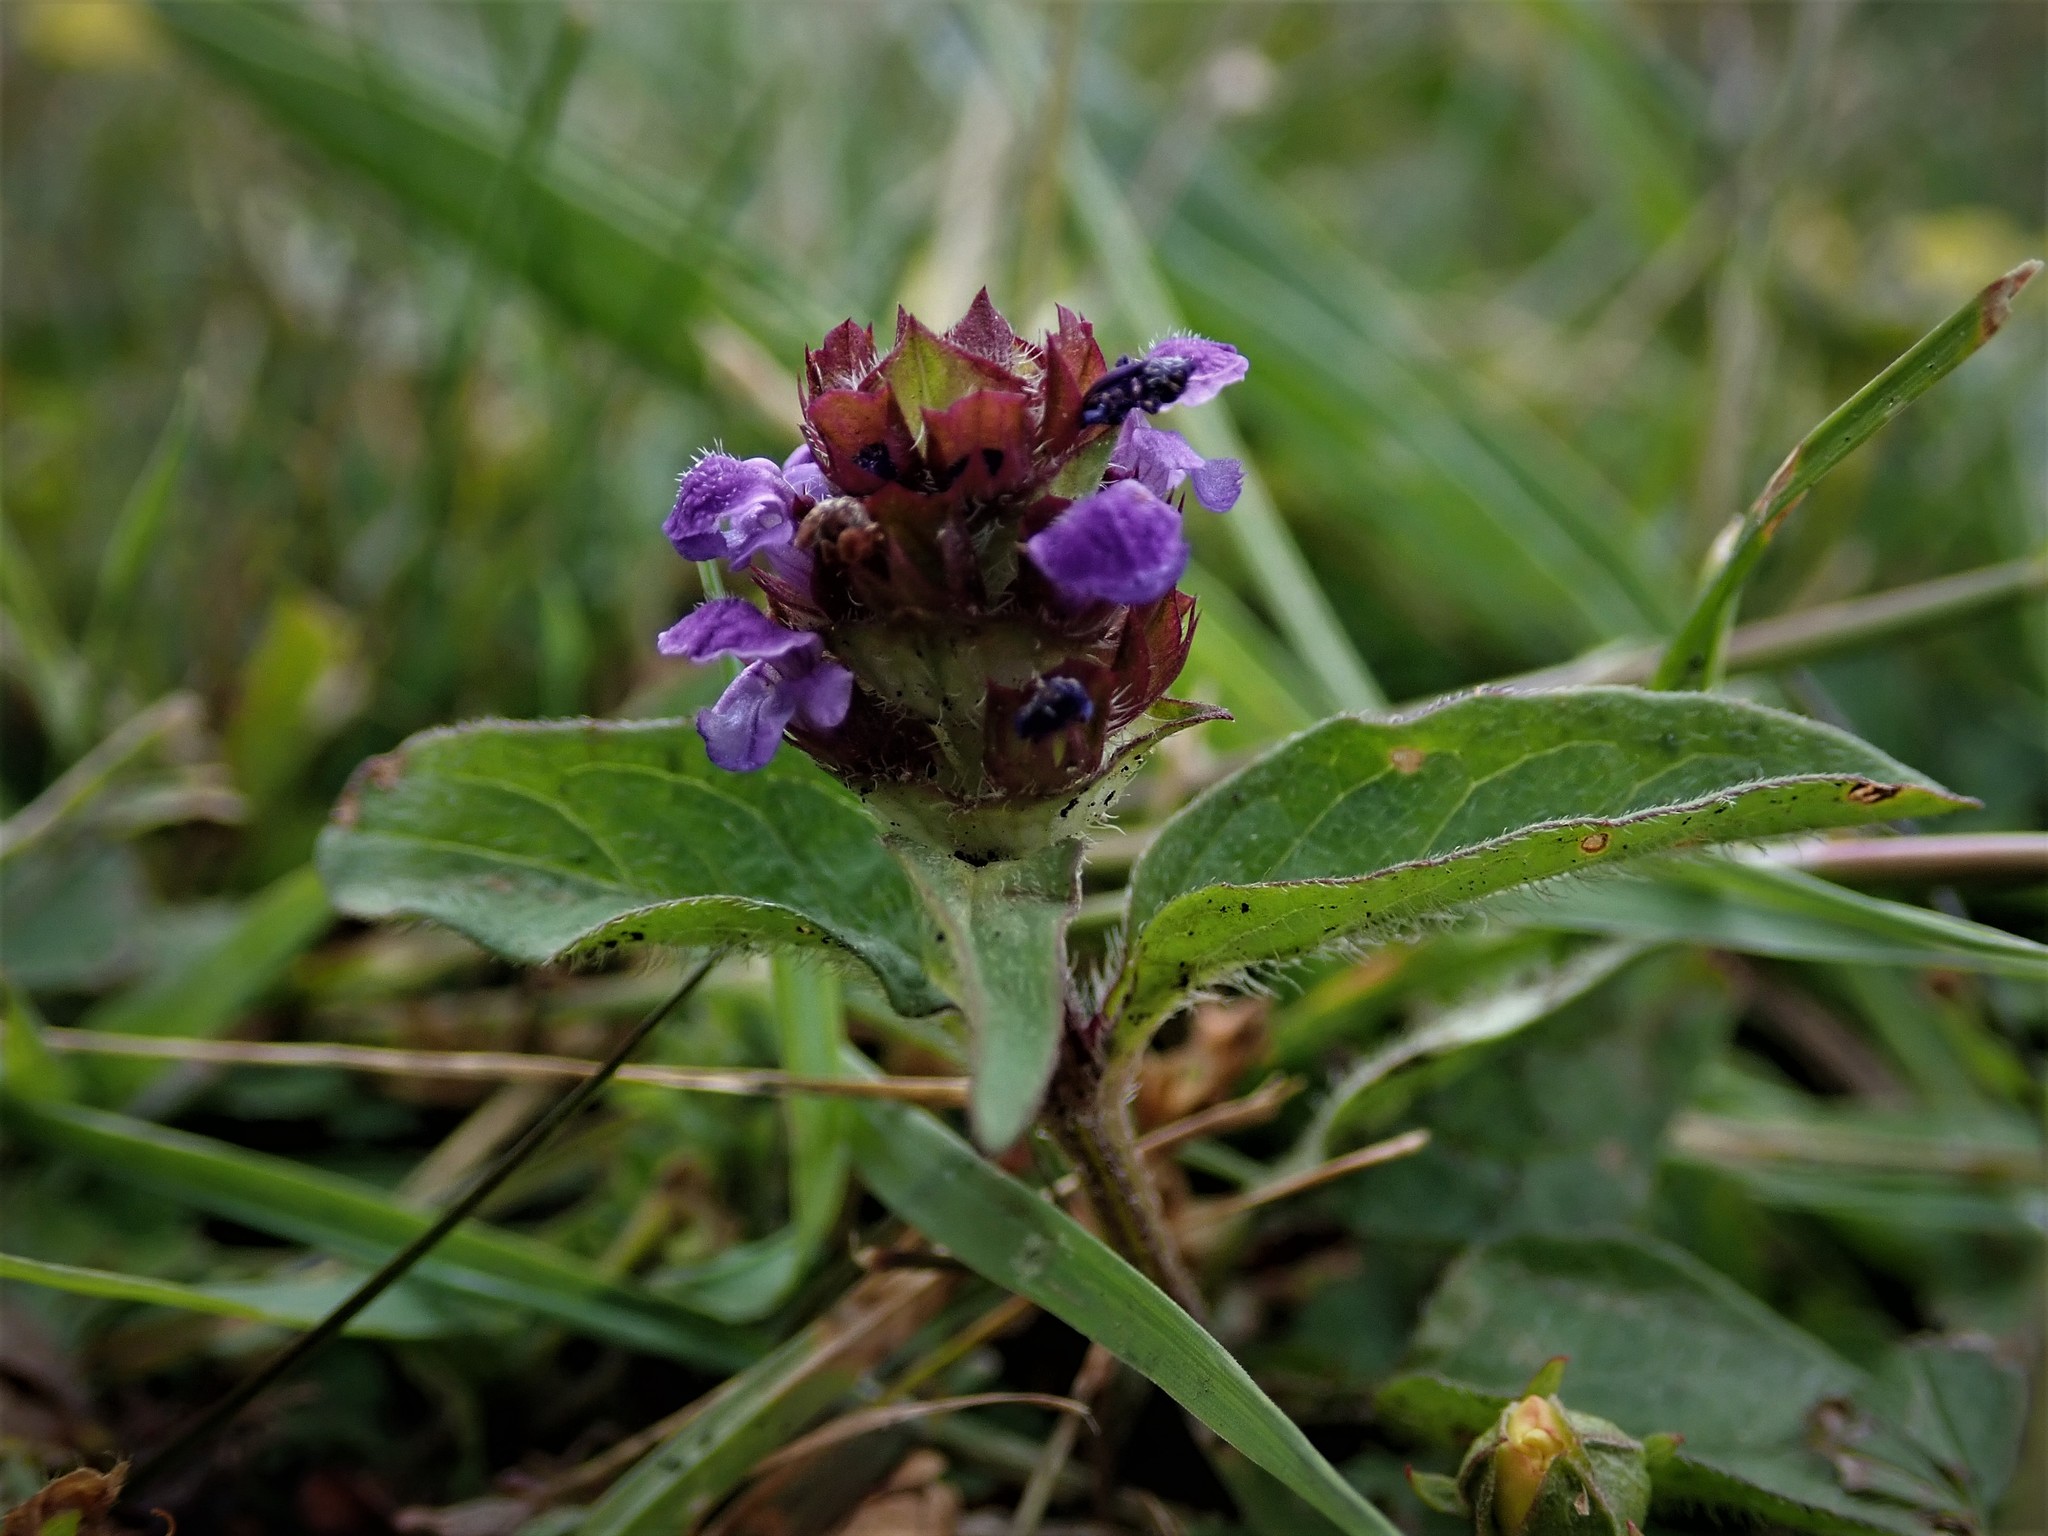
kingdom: Plantae
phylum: Tracheophyta
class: Magnoliopsida
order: Lamiales
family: Lamiaceae
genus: Prunella
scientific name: Prunella vulgaris
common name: Heal-all
